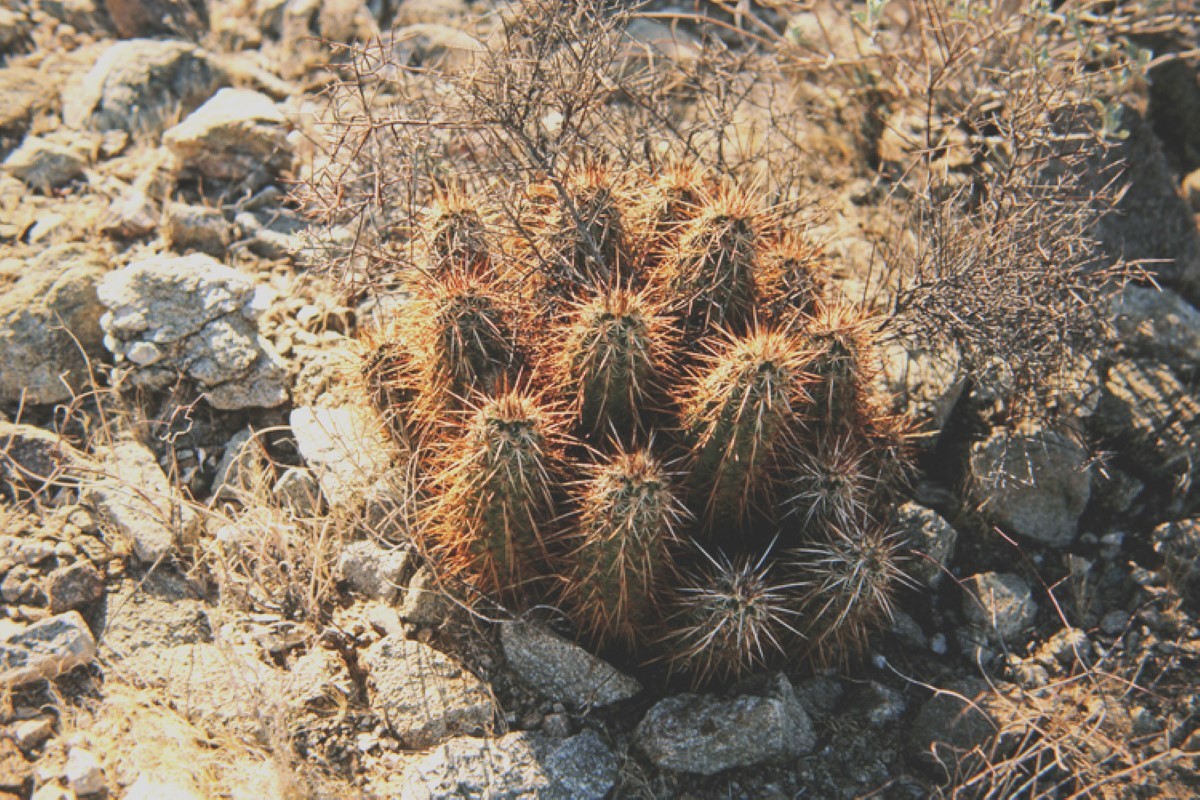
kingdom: Plantae
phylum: Tracheophyta
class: Magnoliopsida
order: Caryophyllales
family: Cactaceae
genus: Echinocereus
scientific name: Echinocereus engelmannii
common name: Engelmann's hedgehog cactus
